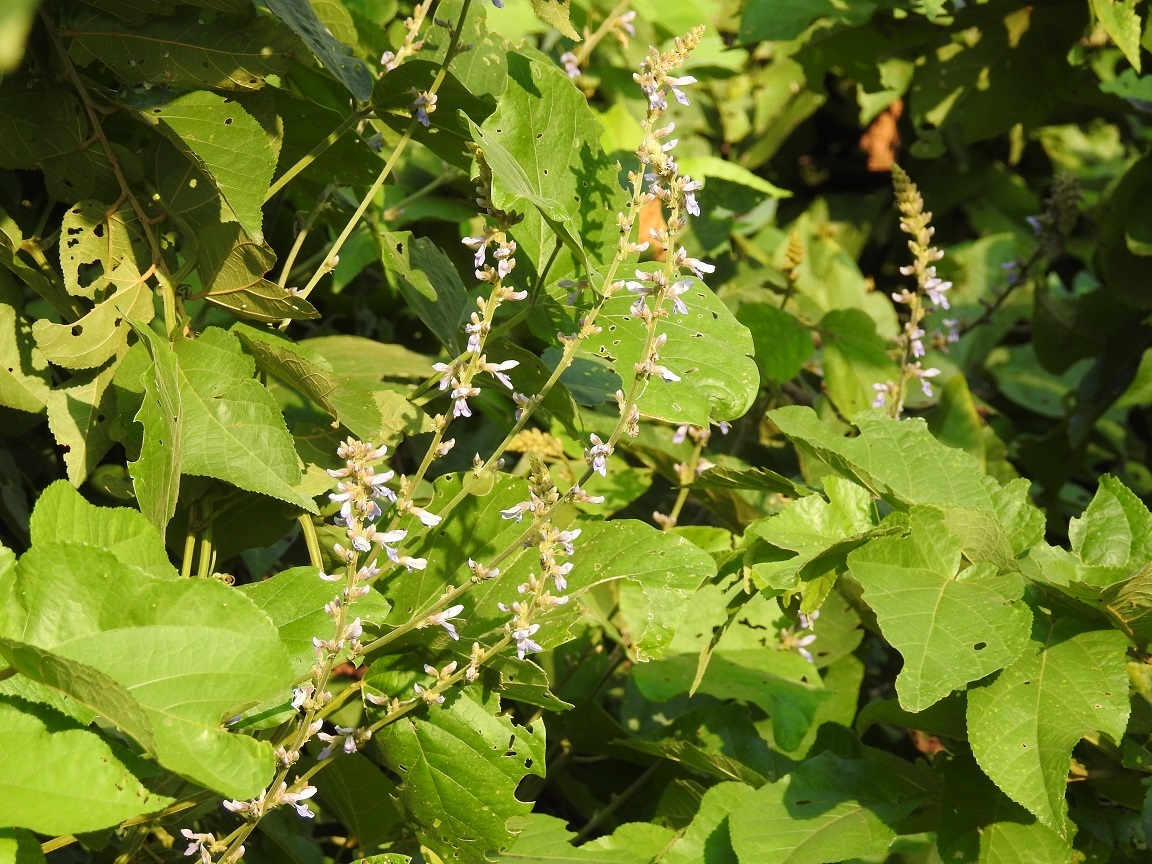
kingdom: Plantae
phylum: Tracheophyta
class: Magnoliopsida
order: Fabales
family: Fabaceae
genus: Calopogonium
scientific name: Calopogonium caeruleum
